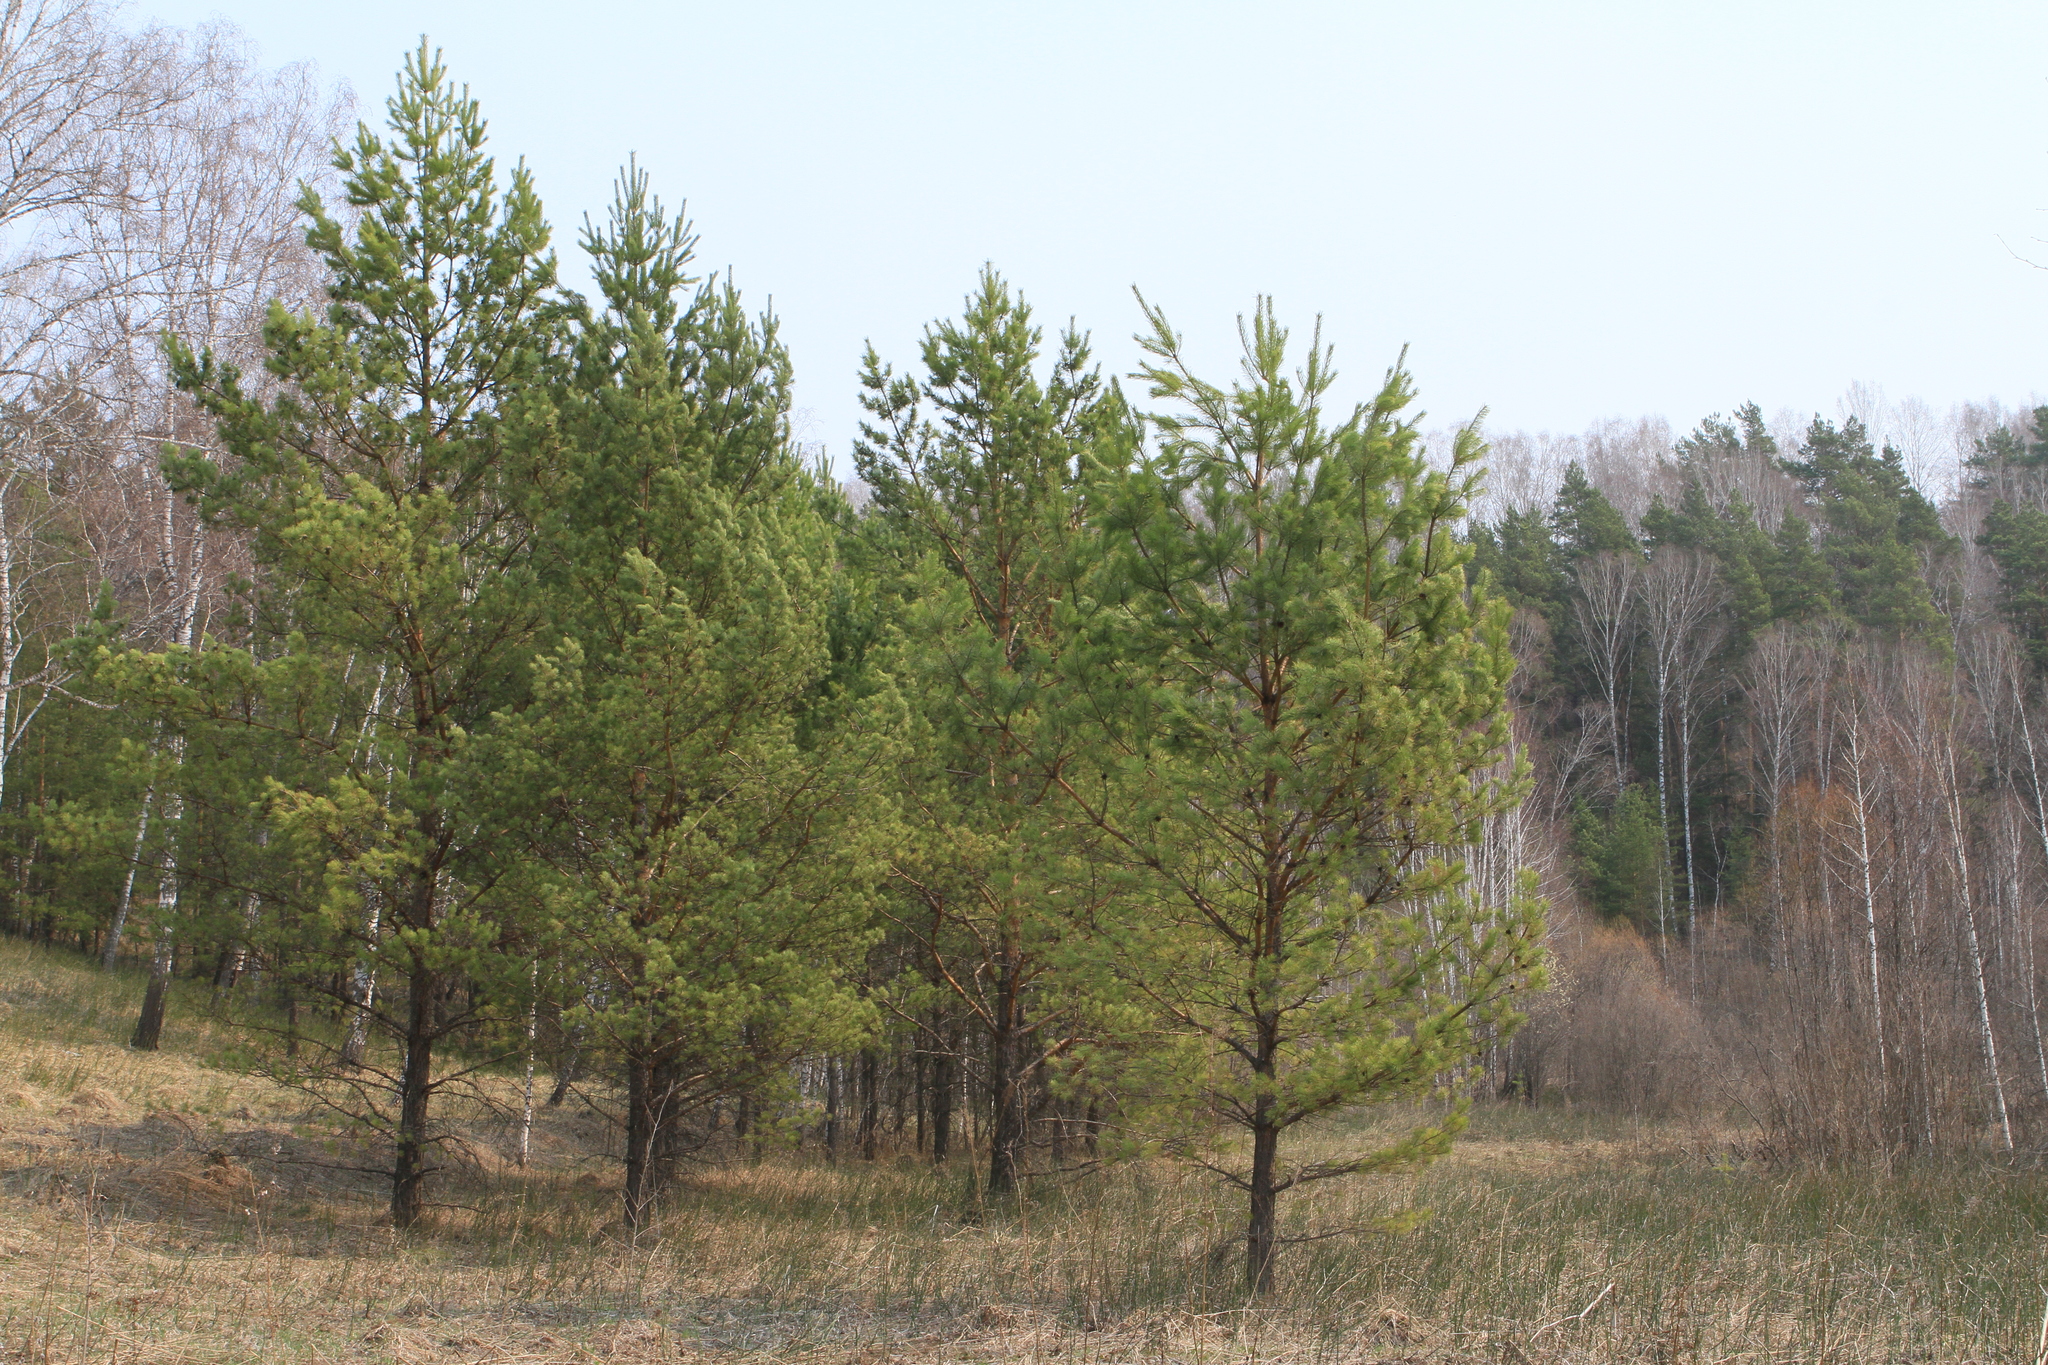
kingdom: Plantae
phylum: Tracheophyta
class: Pinopsida
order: Pinales
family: Pinaceae
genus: Pinus
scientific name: Pinus sylvestris
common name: Scots pine
